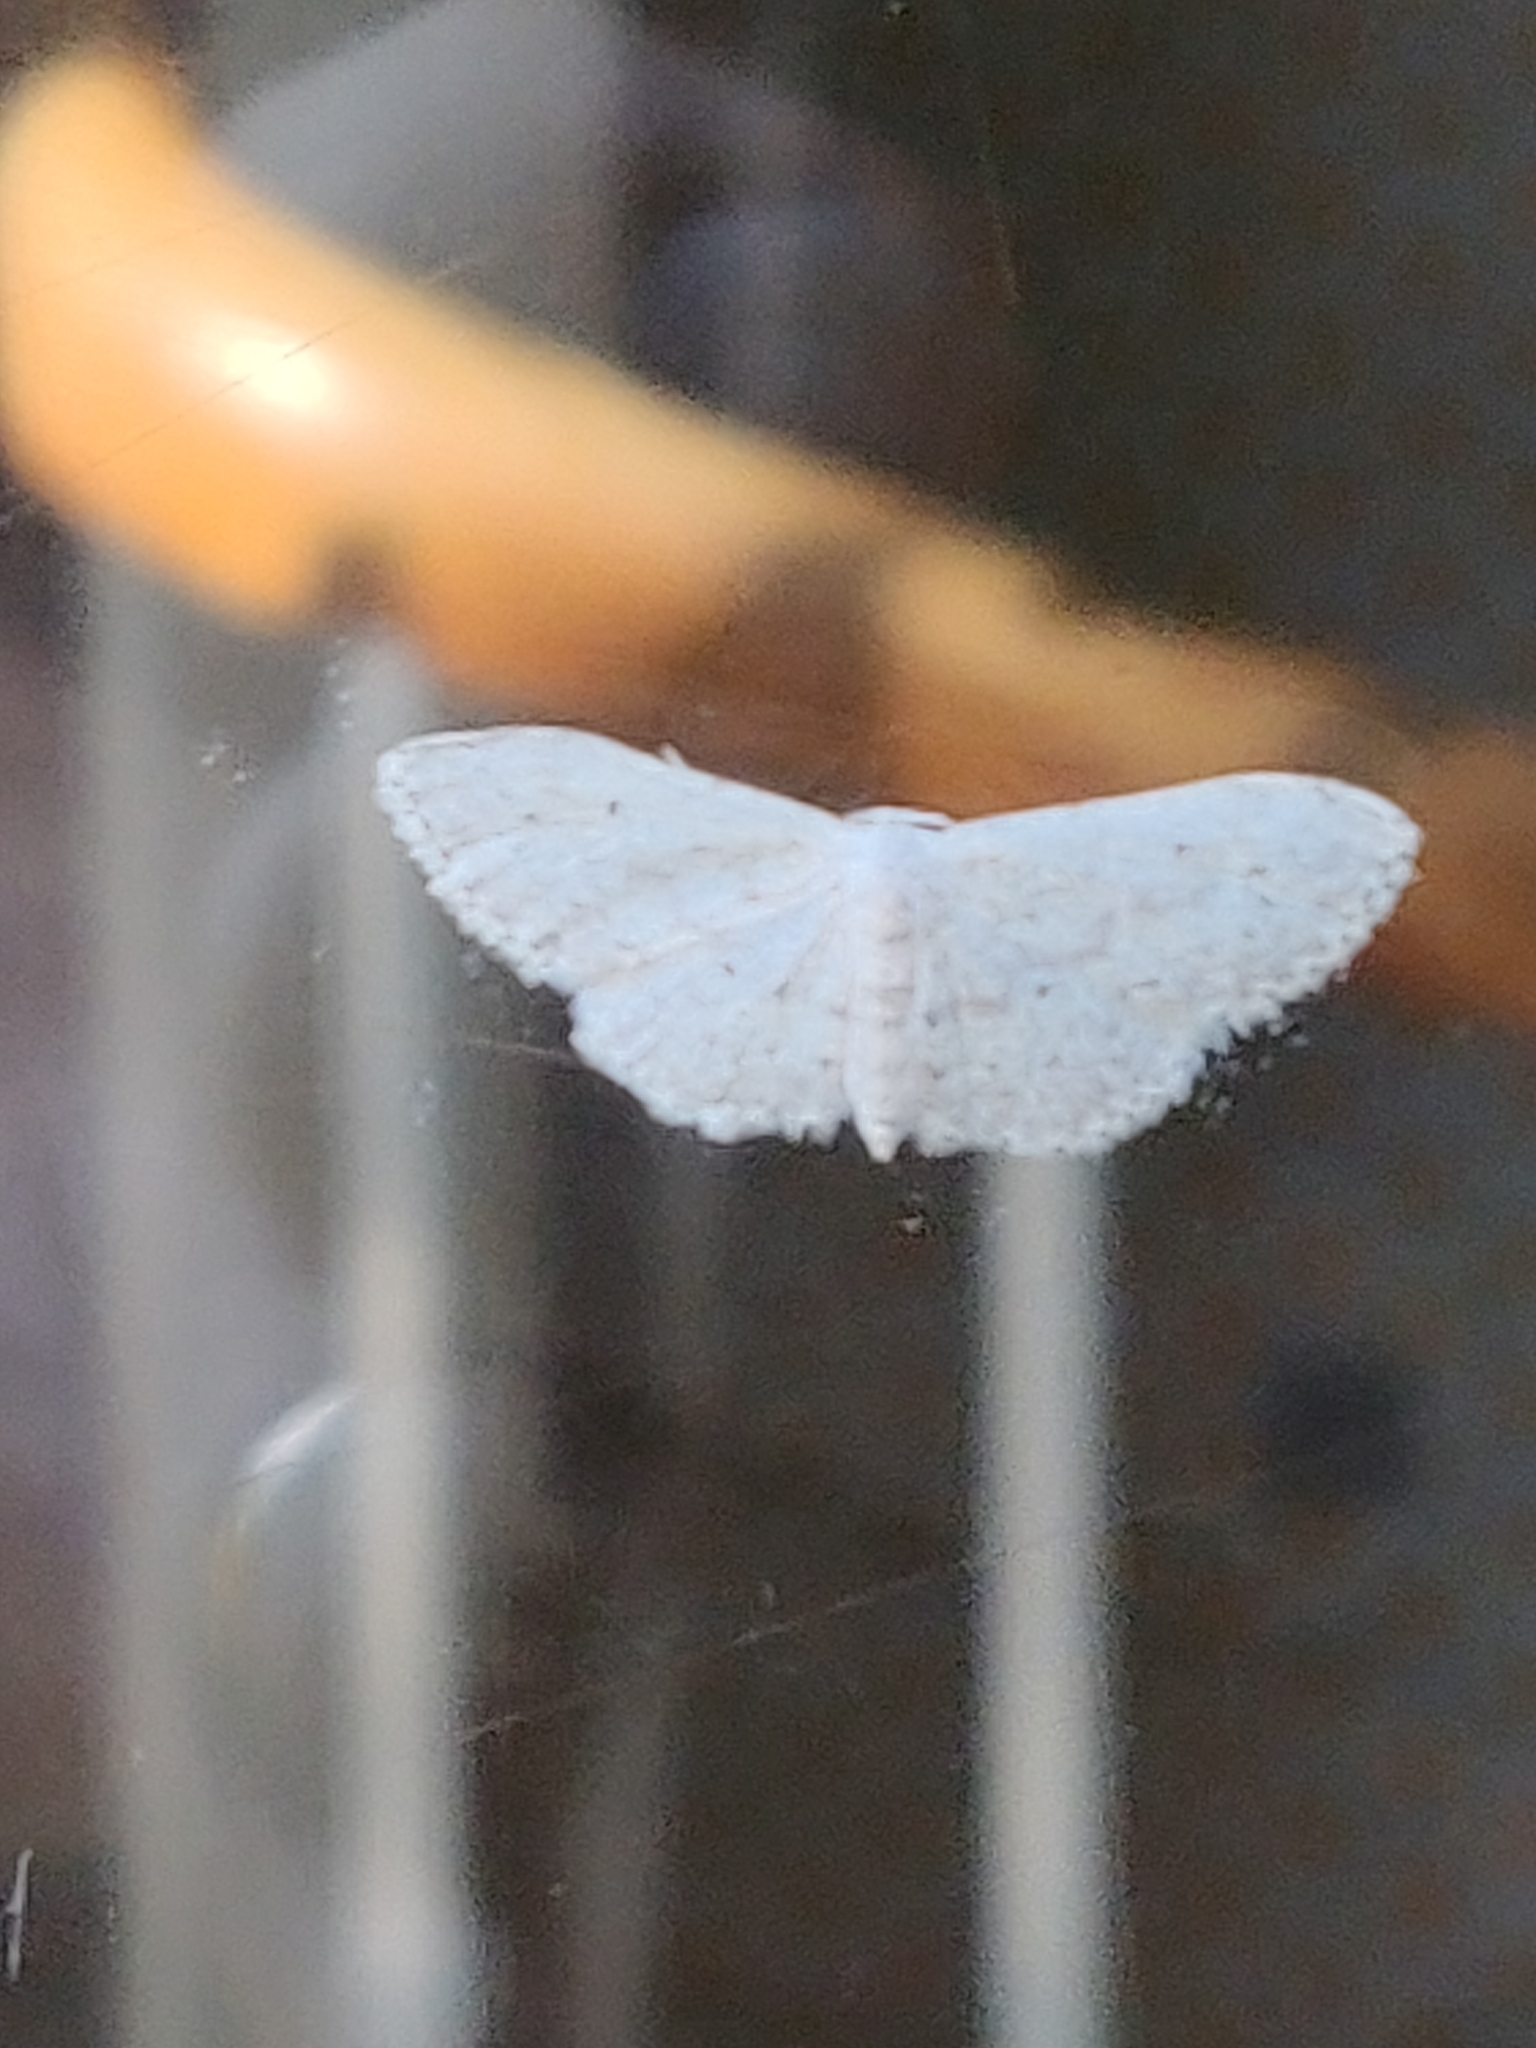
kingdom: Animalia
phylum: Arthropoda
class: Insecta
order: Lepidoptera
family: Geometridae
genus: Idaea
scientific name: Idaea seriata
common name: Small dusty wave
